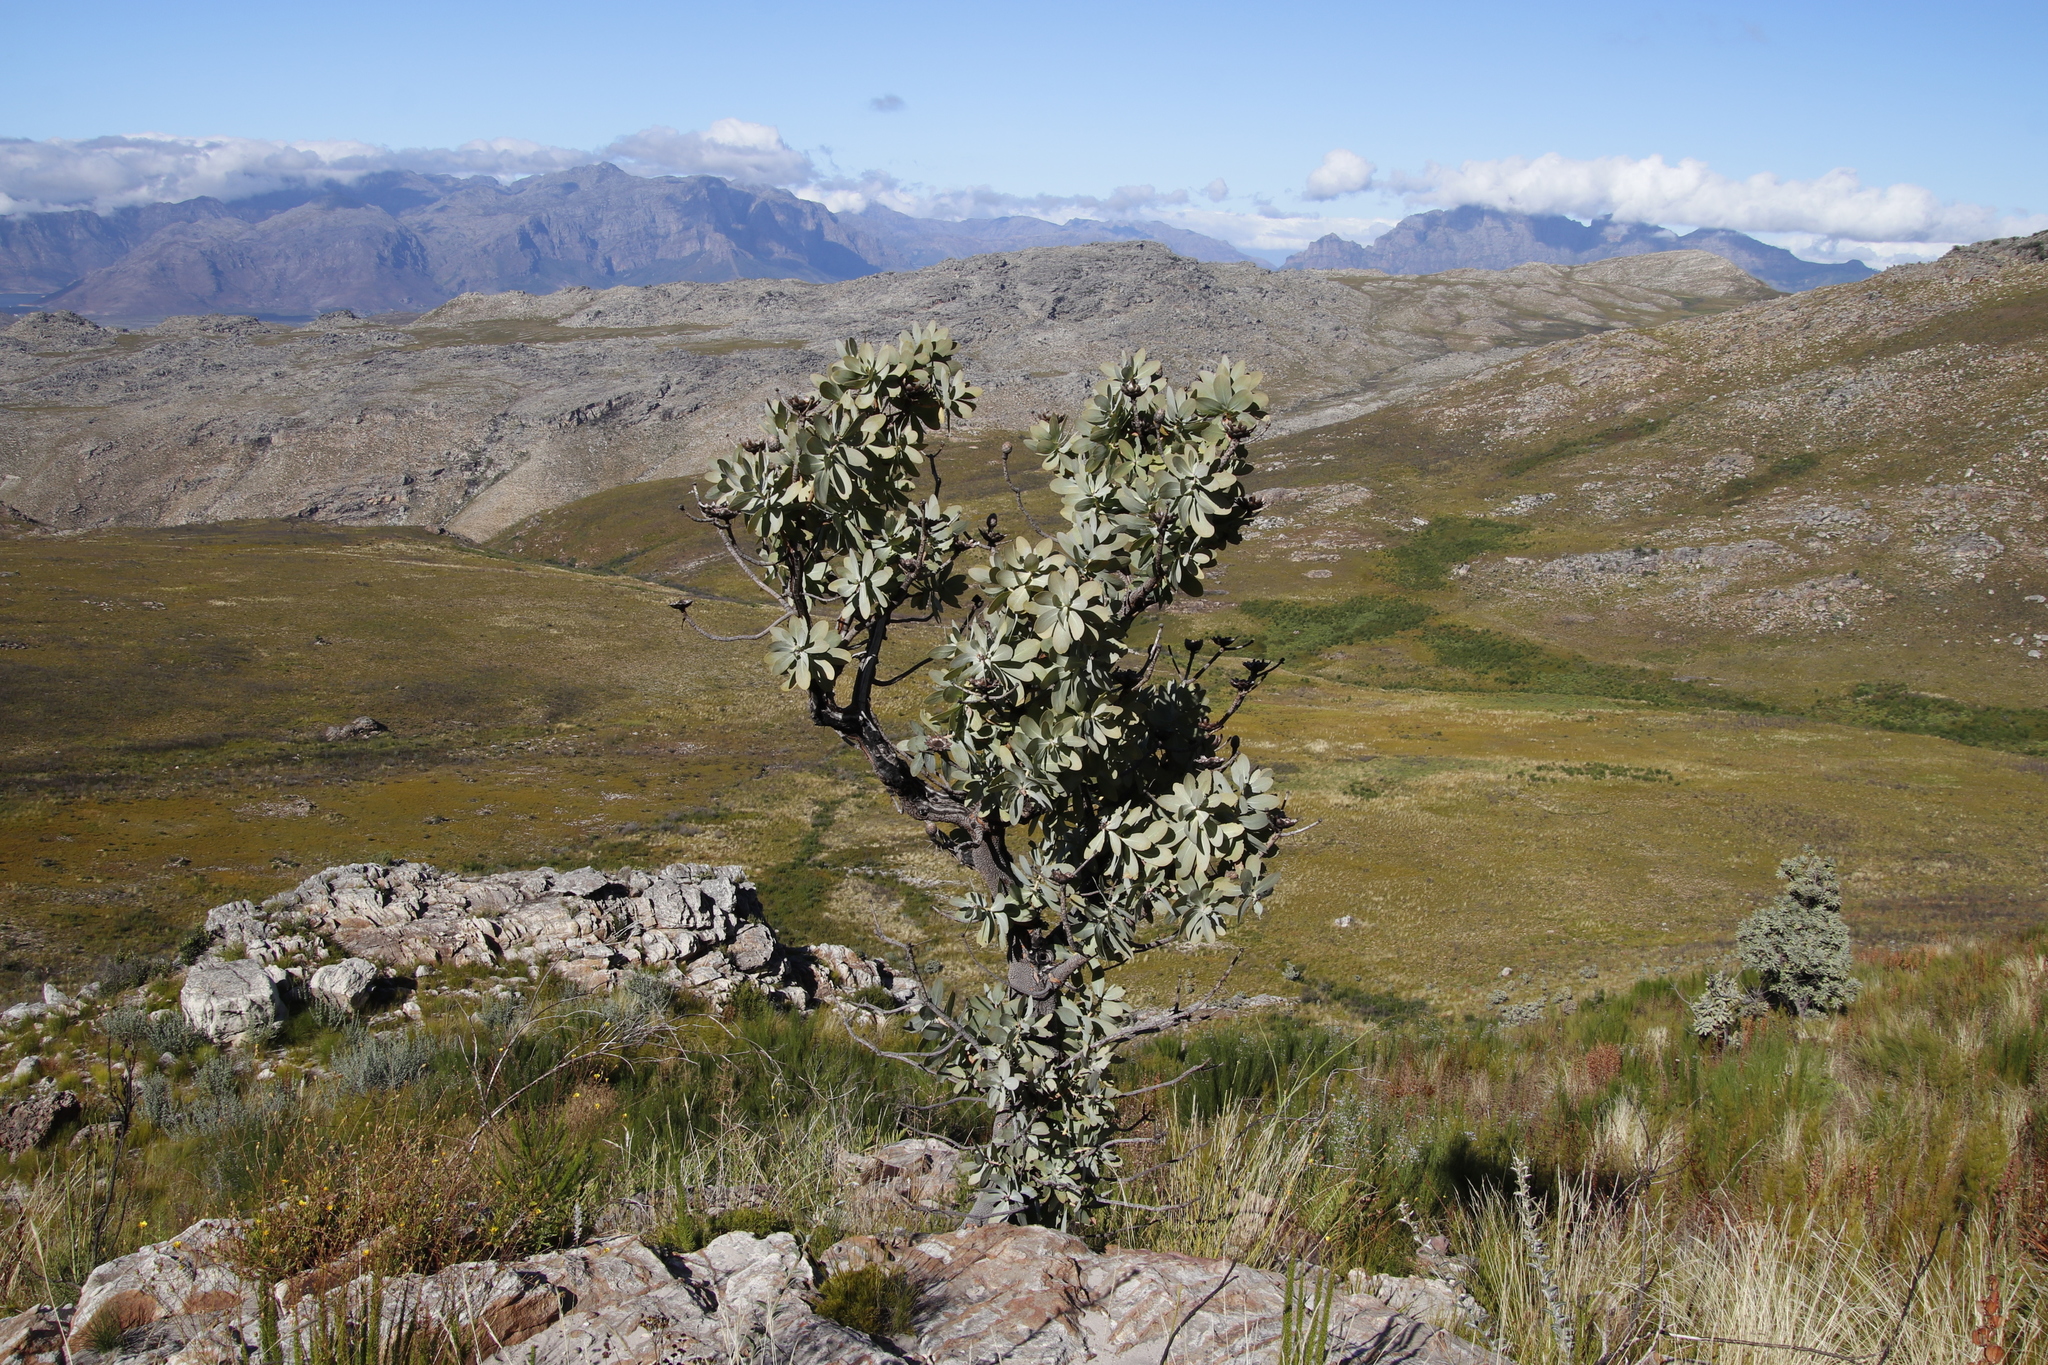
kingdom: Plantae
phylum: Tracheophyta
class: Magnoliopsida
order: Proteales
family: Proteaceae
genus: Protea
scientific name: Protea nitida
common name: Tree protea
